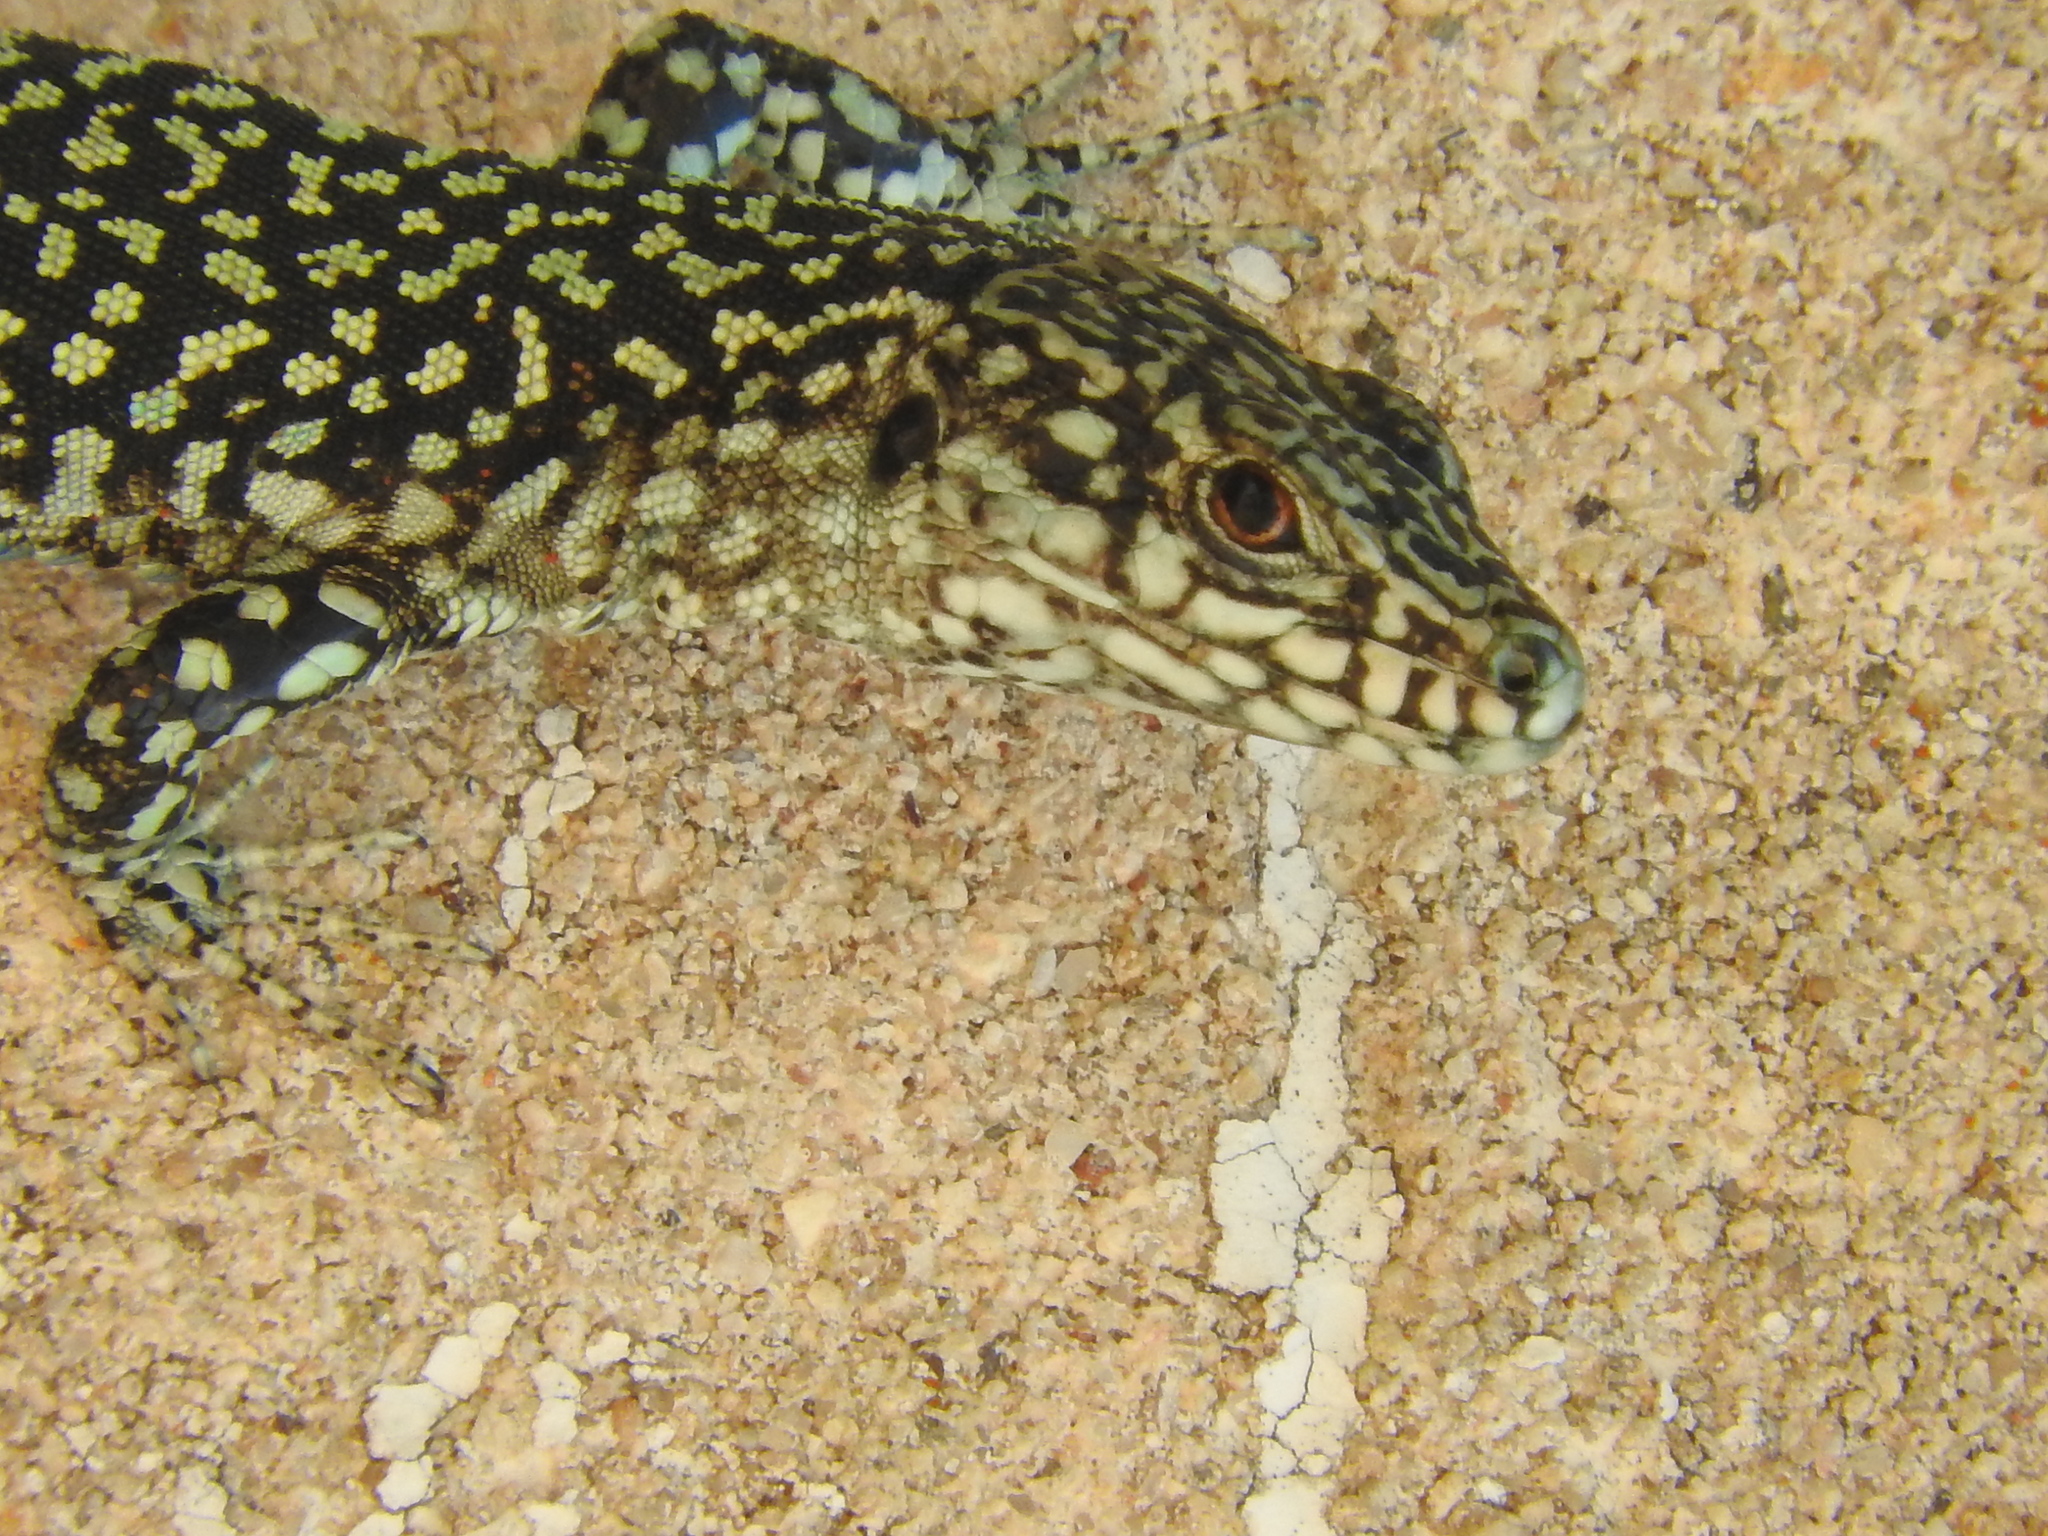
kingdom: Animalia
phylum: Chordata
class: Squamata
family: Lacertidae
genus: Podarcis
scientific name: Podarcis muralis
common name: Common wall lizard
